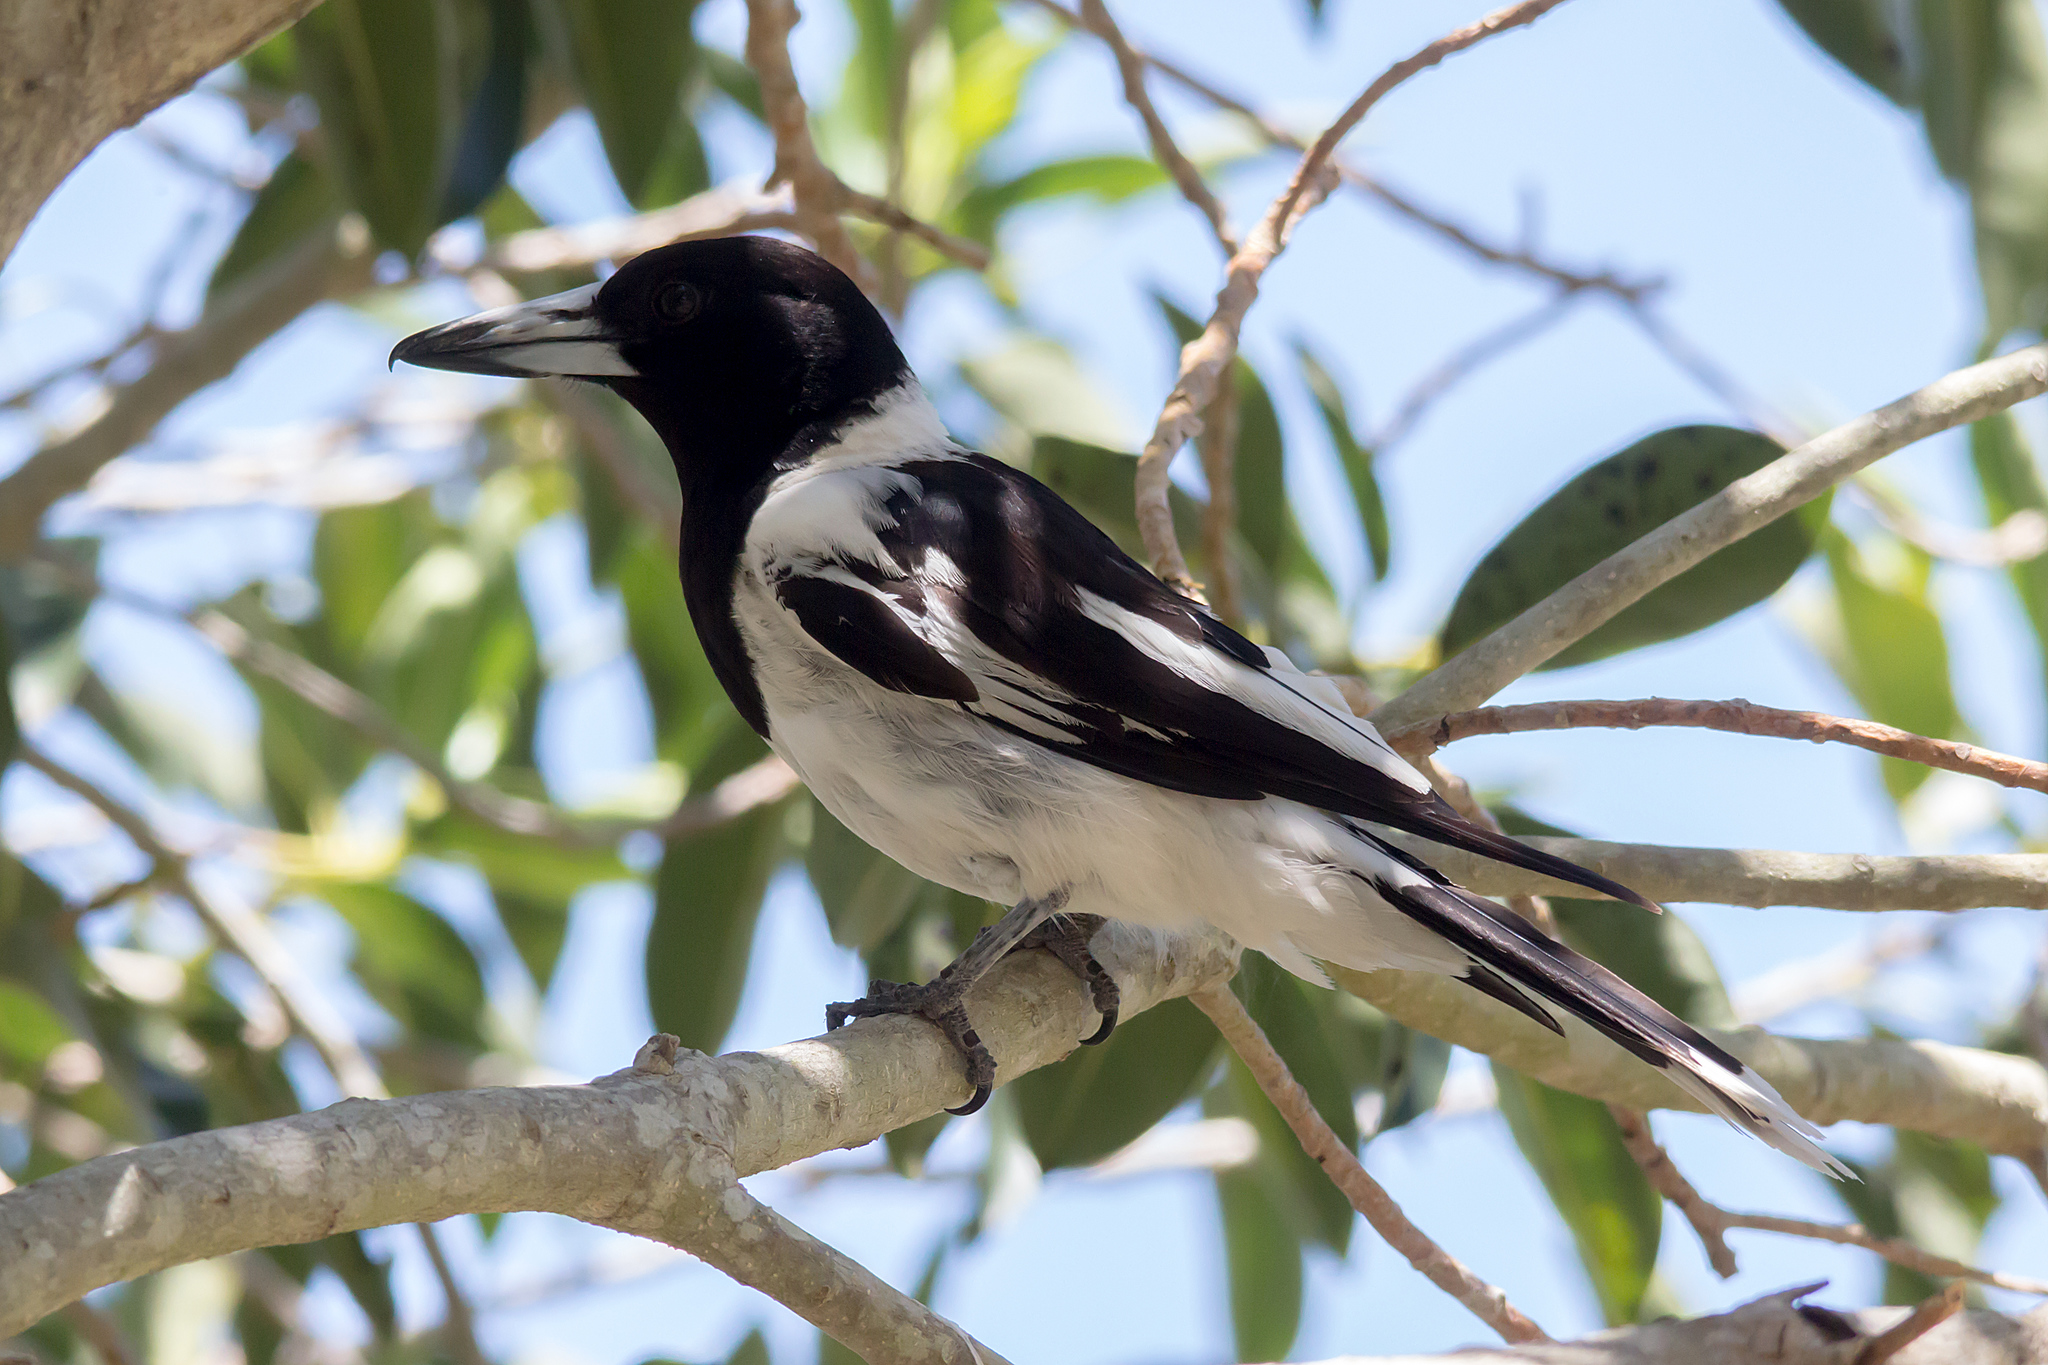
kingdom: Animalia
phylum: Chordata
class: Aves
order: Passeriformes
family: Cracticidae
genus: Cracticus
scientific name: Cracticus nigrogularis
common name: Pied butcherbird
